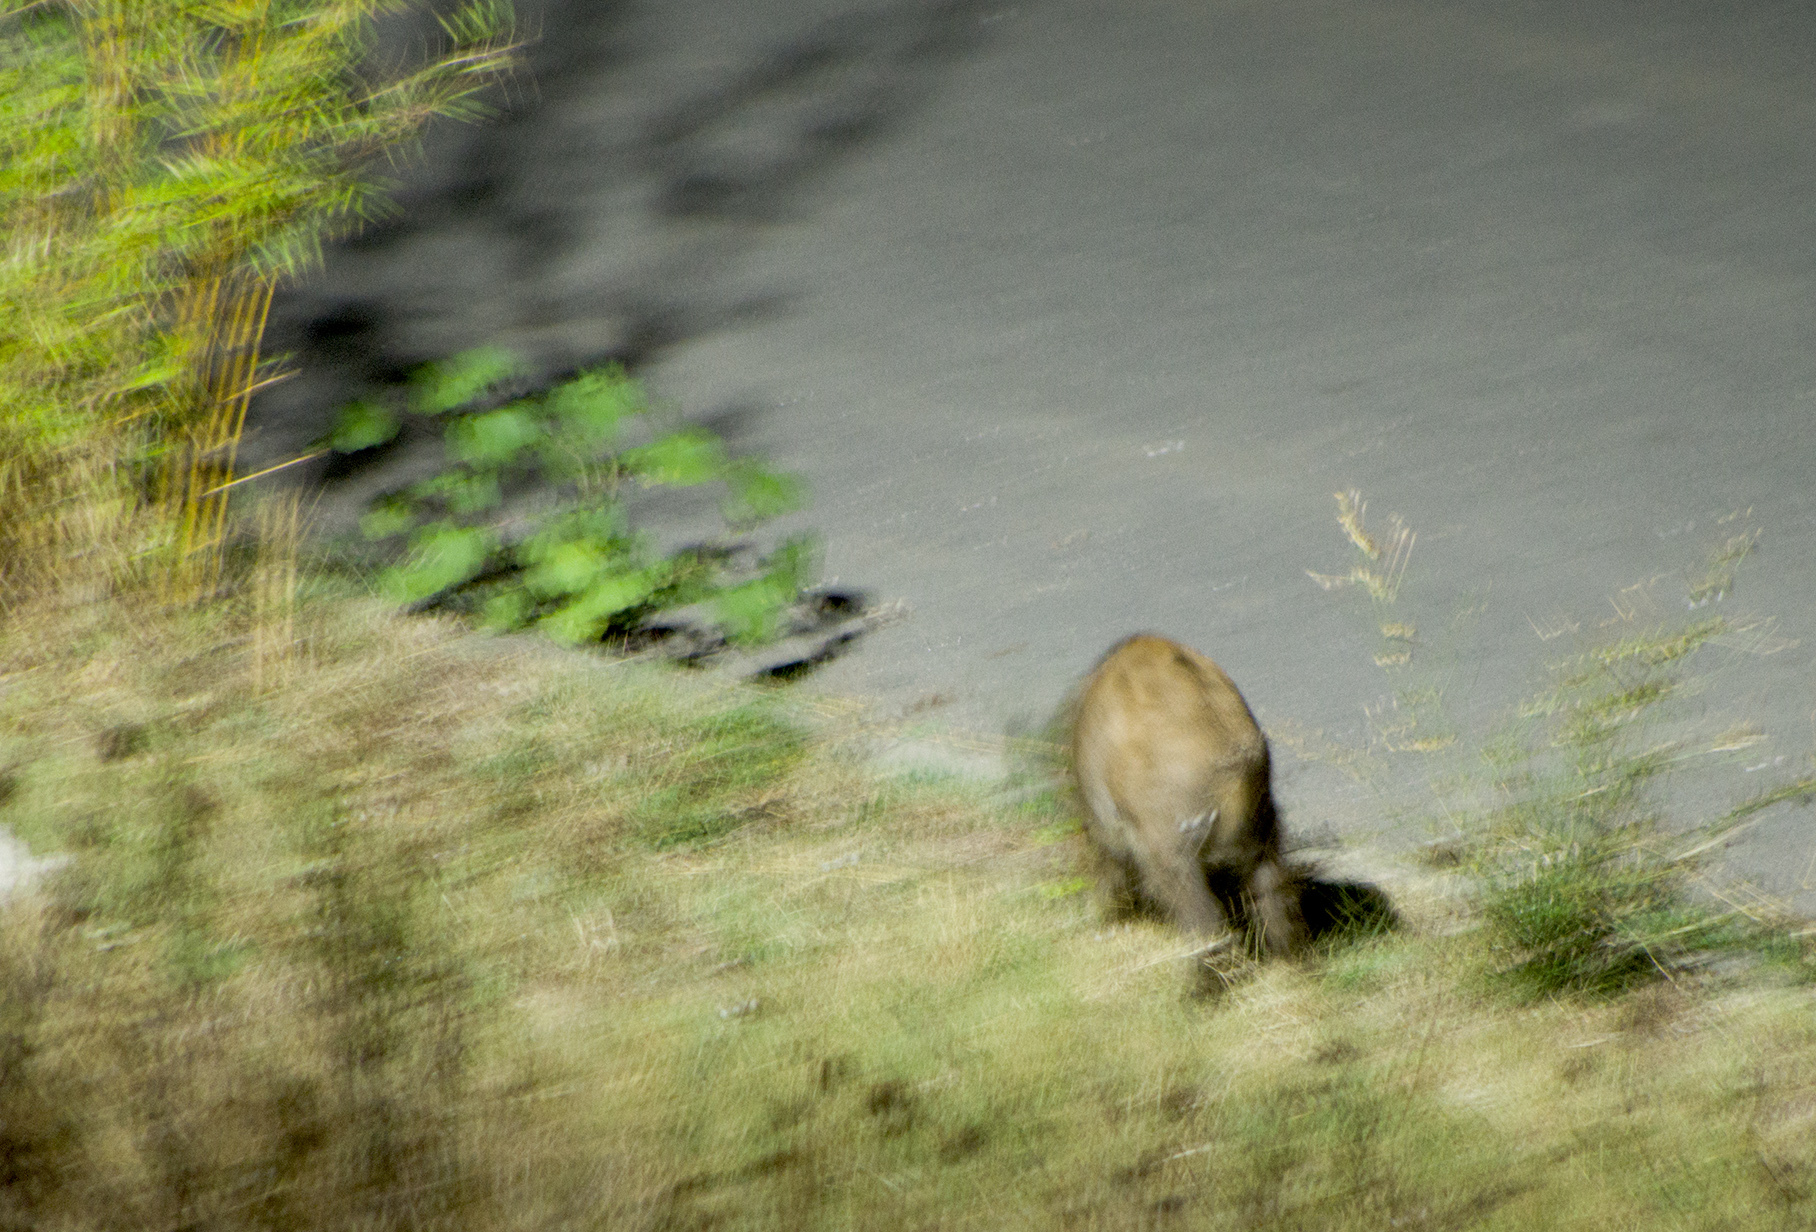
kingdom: Animalia
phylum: Chordata
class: Mammalia
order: Artiodactyla
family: Suidae
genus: Sus
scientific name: Sus scrofa
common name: Wild boar
